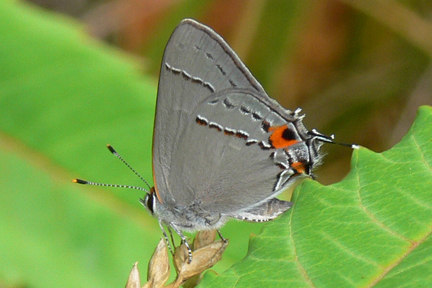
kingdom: Animalia
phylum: Arthropoda
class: Insecta
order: Lepidoptera
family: Lycaenidae
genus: Strymon
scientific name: Strymon melinus
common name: Gray hairstreak
